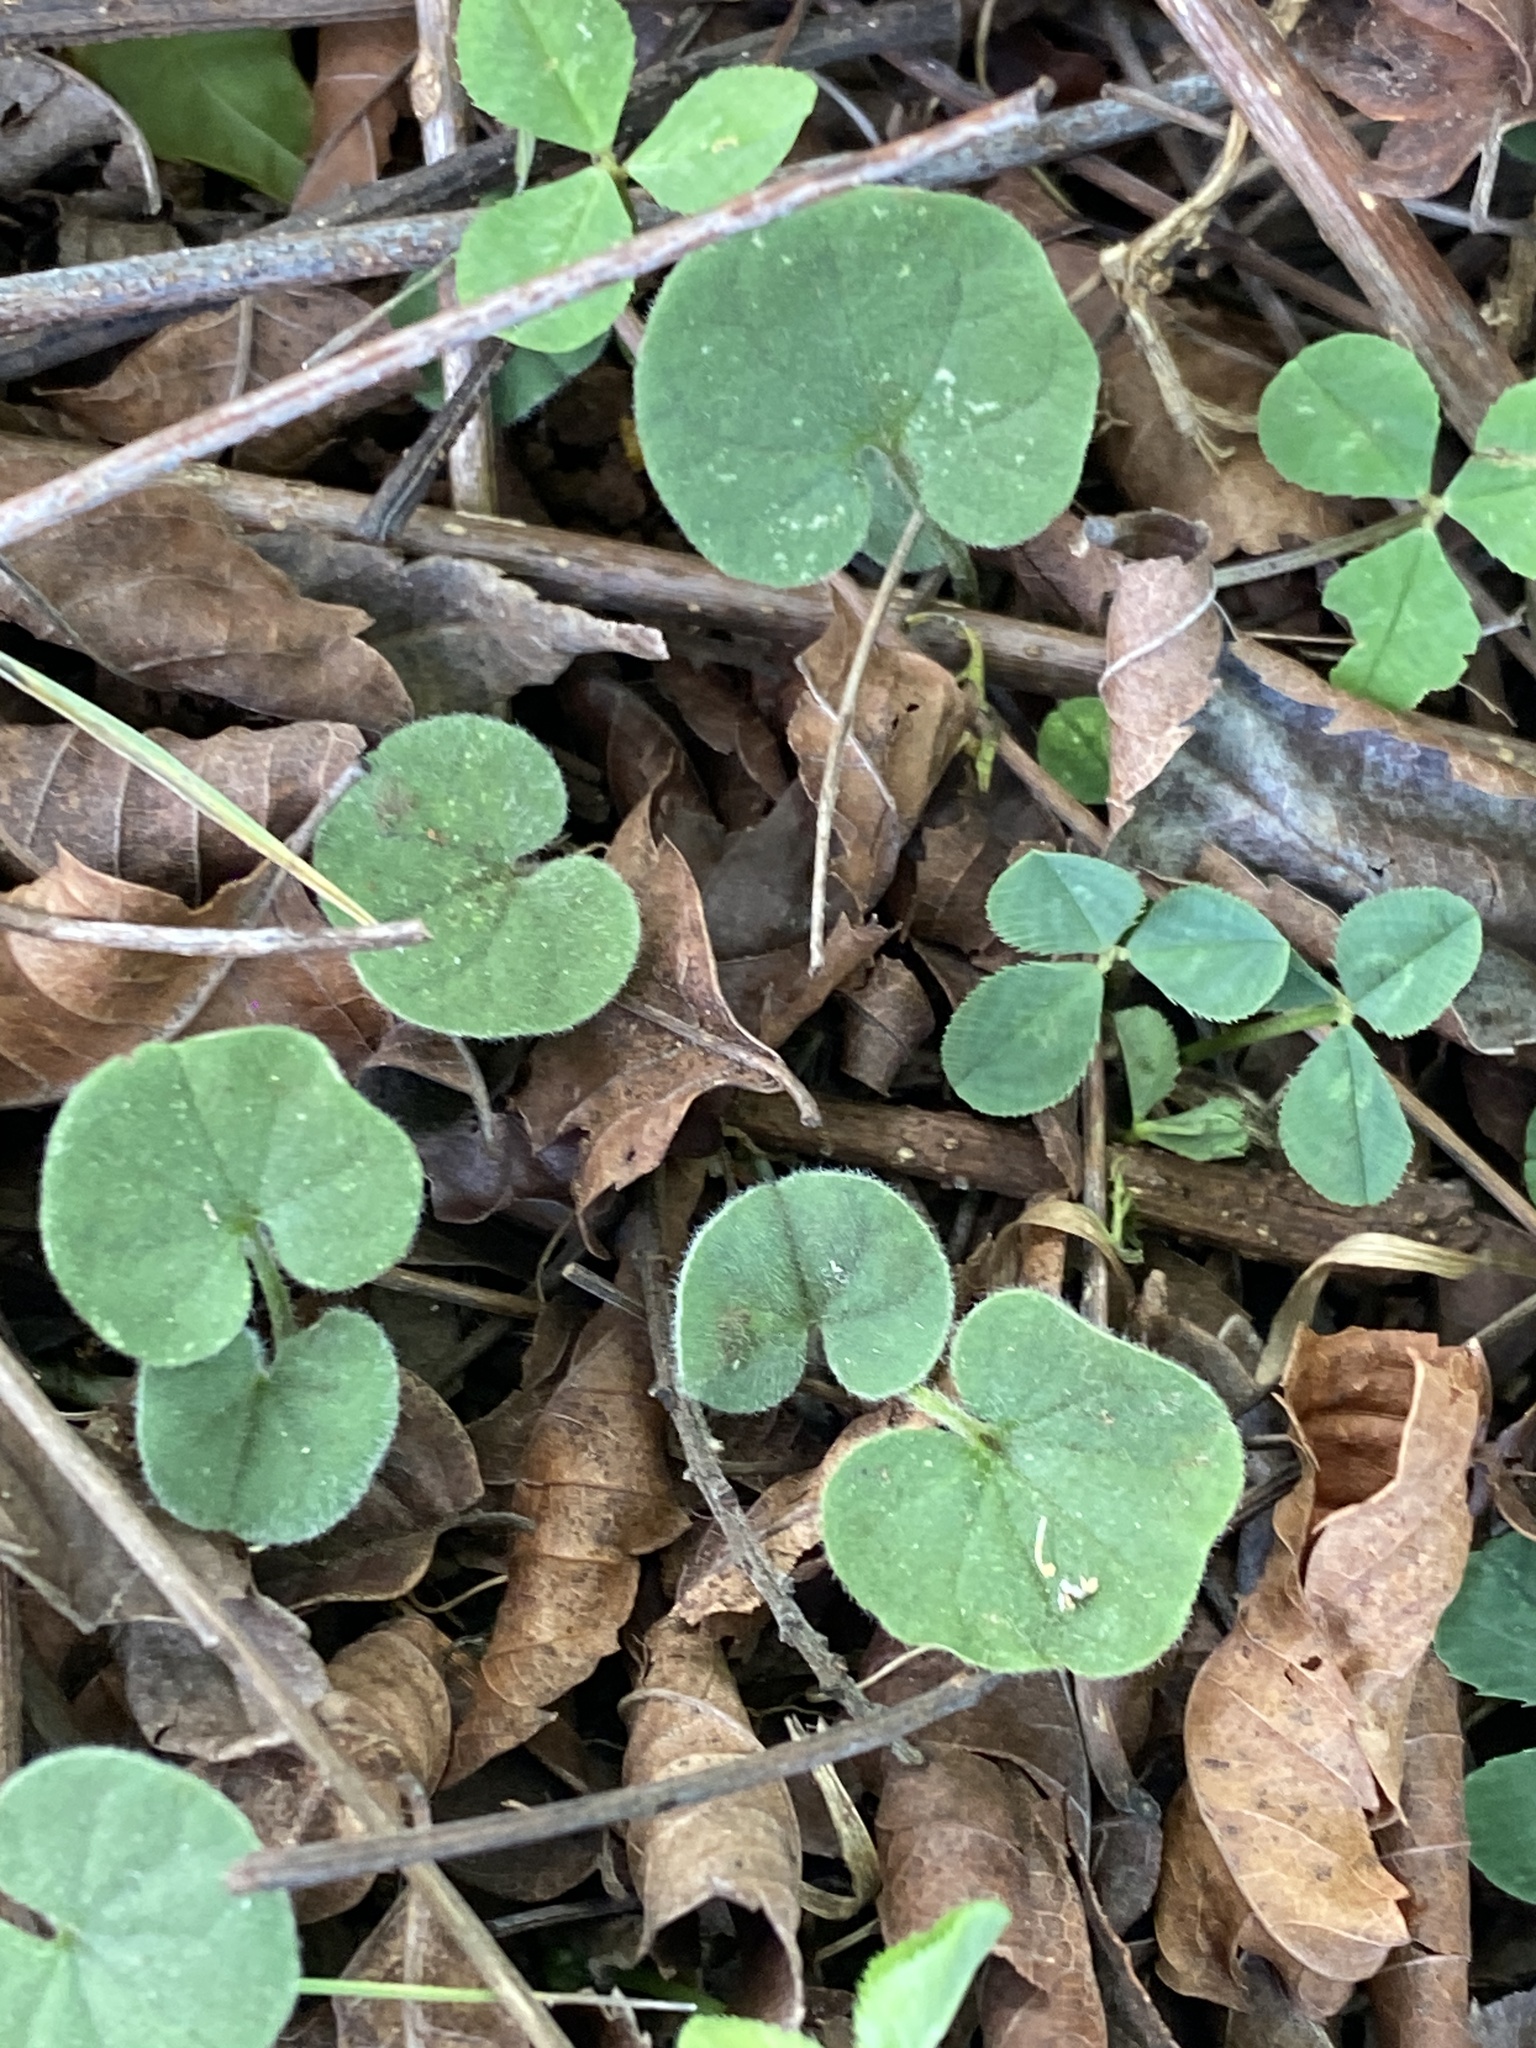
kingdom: Plantae
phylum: Tracheophyta
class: Magnoliopsida
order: Solanales
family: Convolvulaceae
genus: Dichondra
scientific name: Dichondra repens
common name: Kidneyweed
